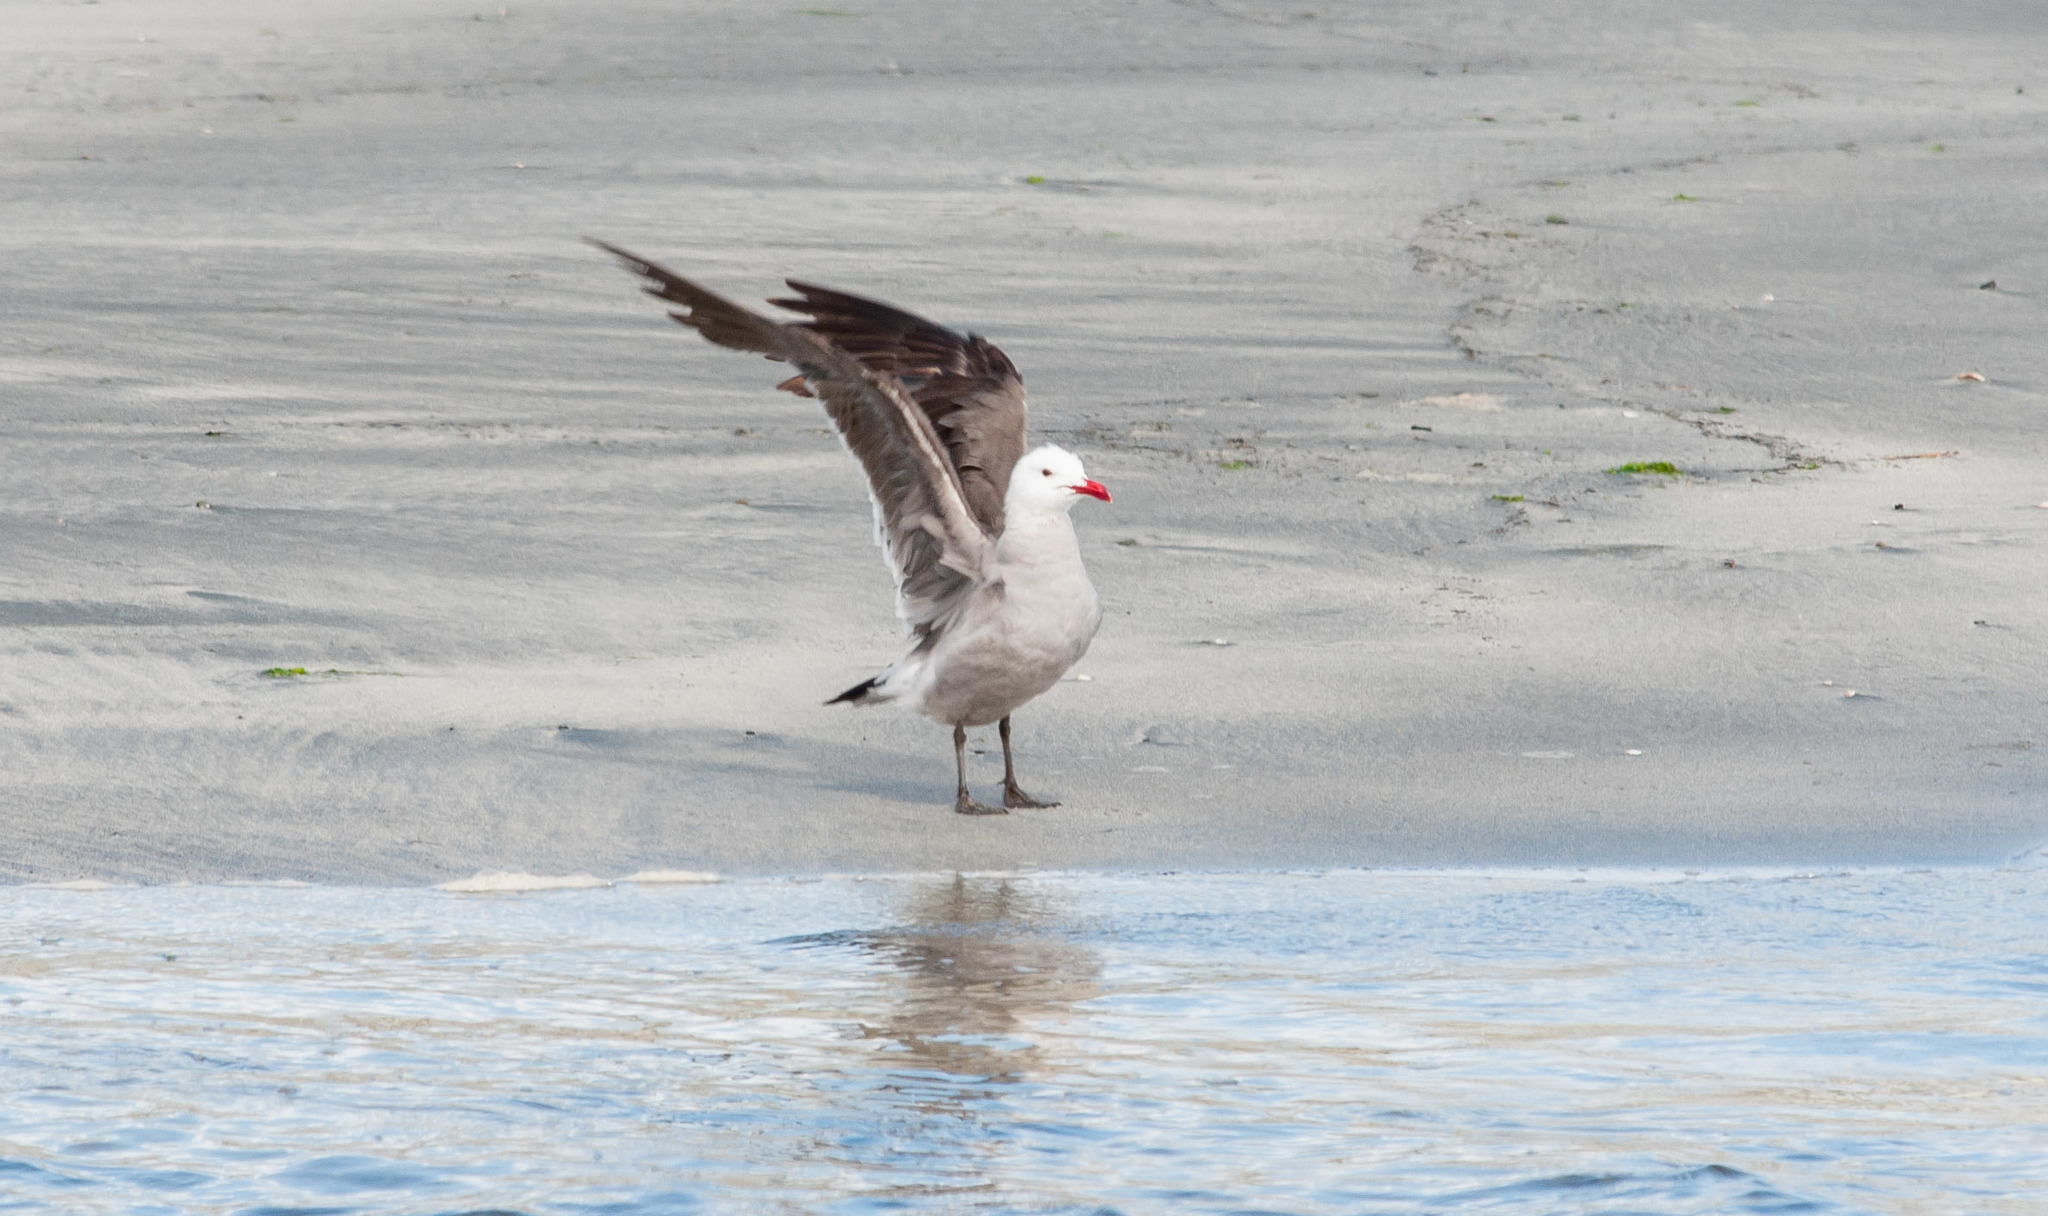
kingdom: Animalia
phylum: Chordata
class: Aves
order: Charadriiformes
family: Laridae
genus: Larus
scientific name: Larus heermanni
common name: Heermann's gull
